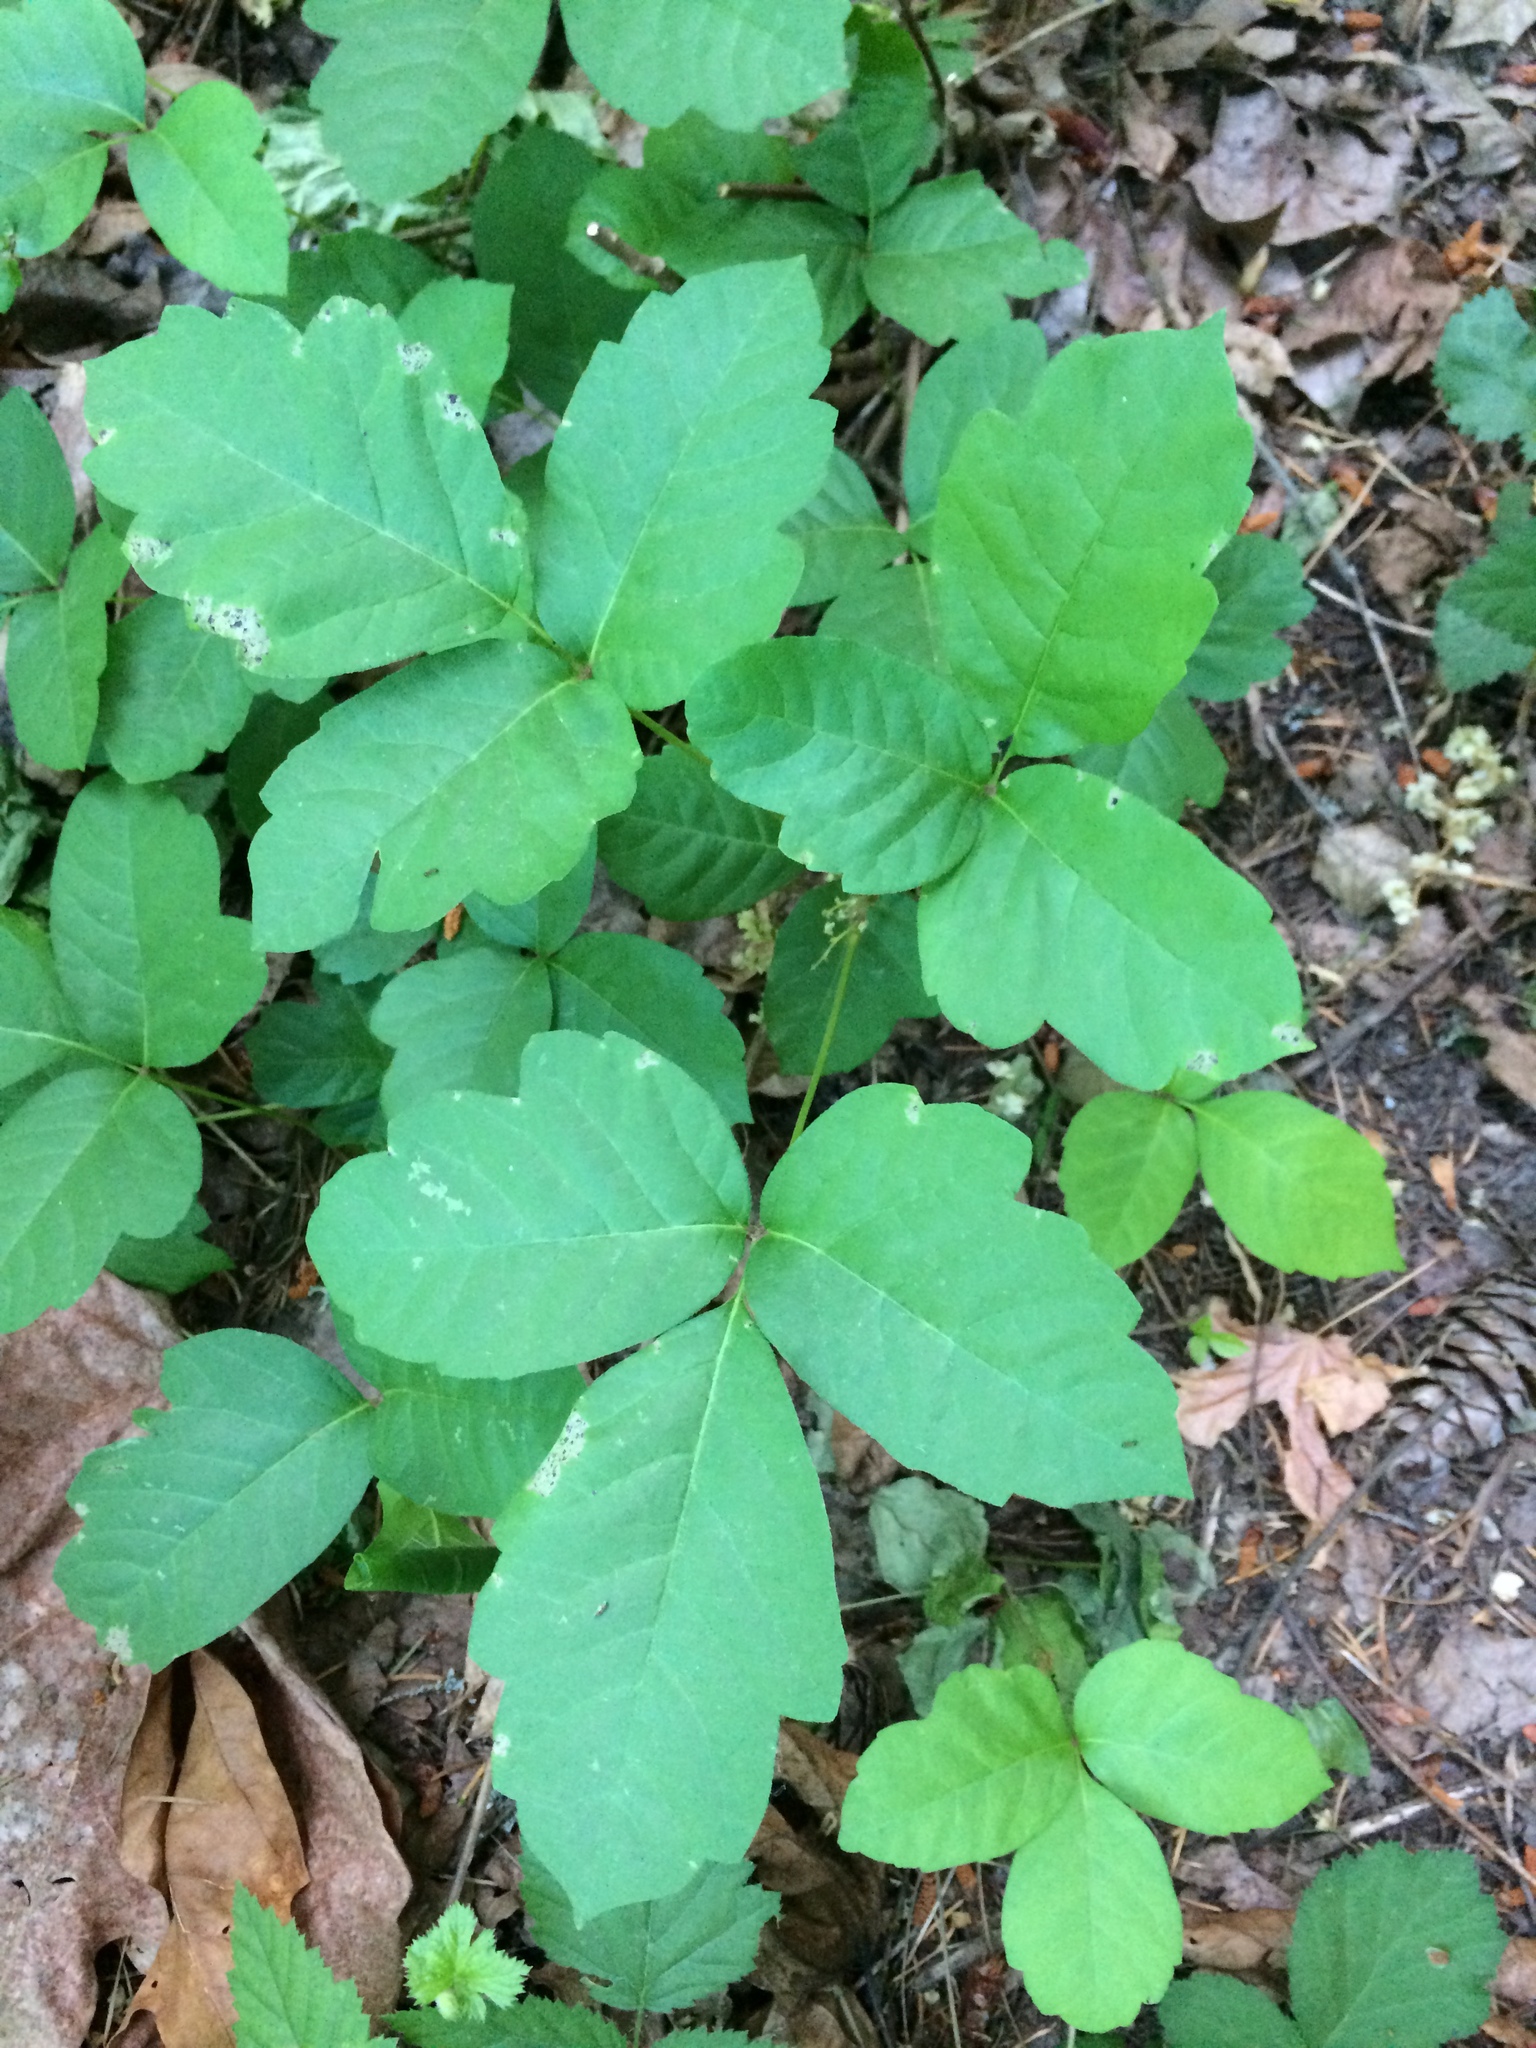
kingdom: Plantae
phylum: Tracheophyta
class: Magnoliopsida
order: Sapindales
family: Anacardiaceae
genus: Toxicodendron
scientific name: Toxicodendron diversilobum
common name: Pacific poison-oak
